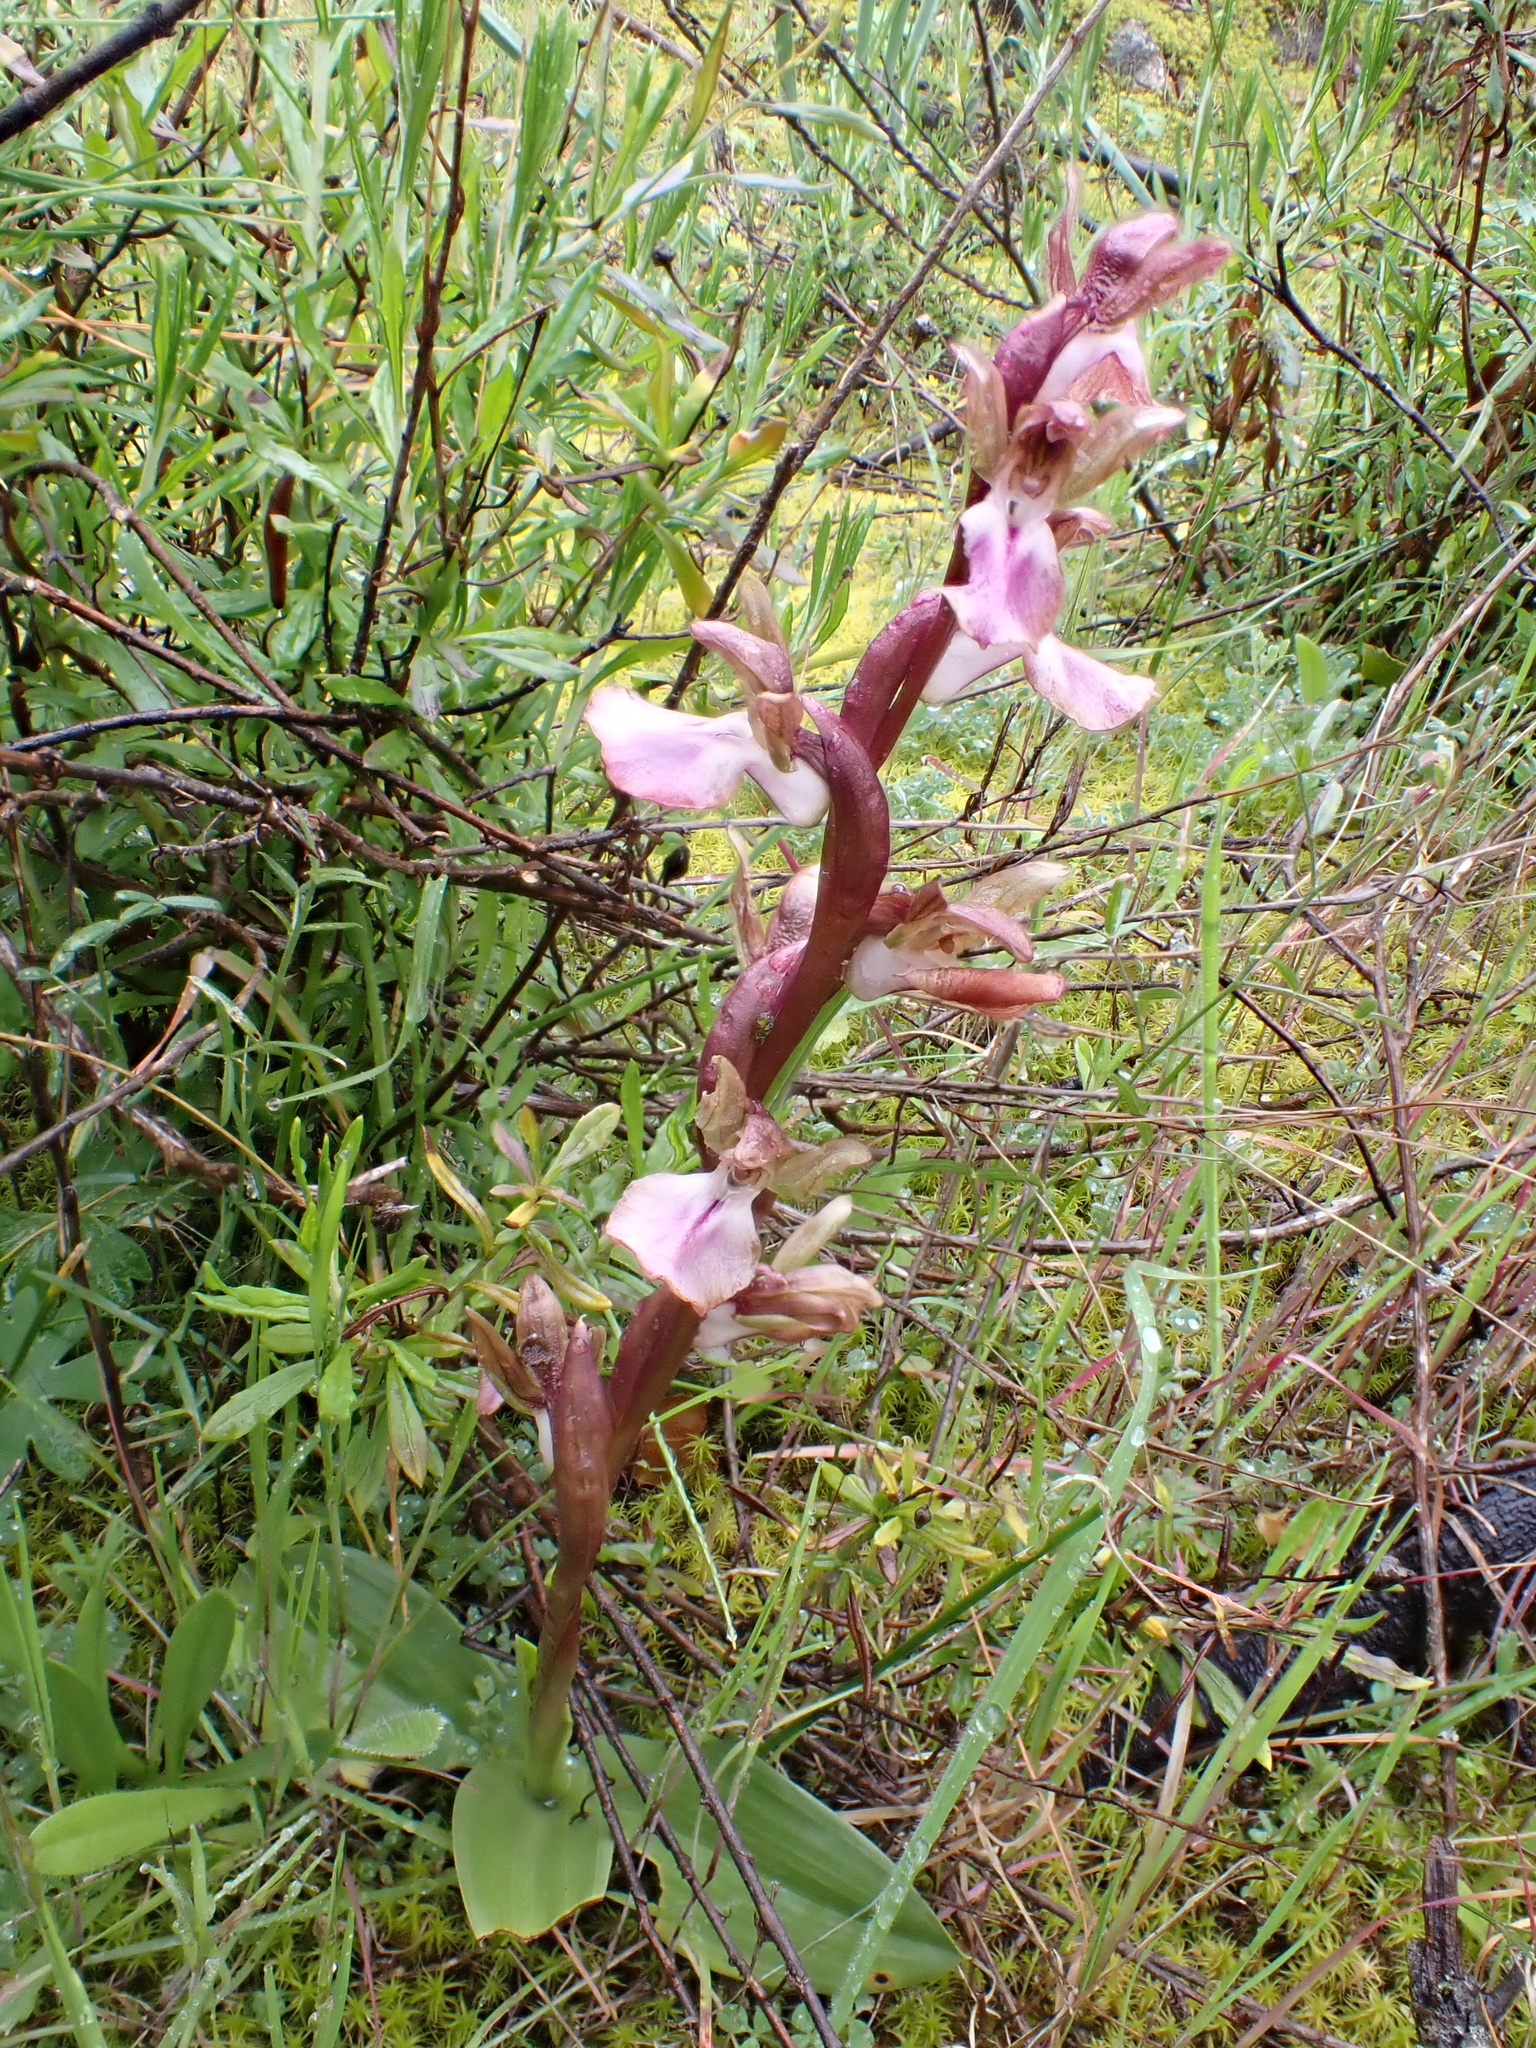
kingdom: Plantae
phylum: Tracheophyta
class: Liliopsida
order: Asparagales
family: Orchidaceae
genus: Anacamptis
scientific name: Anacamptis collina
